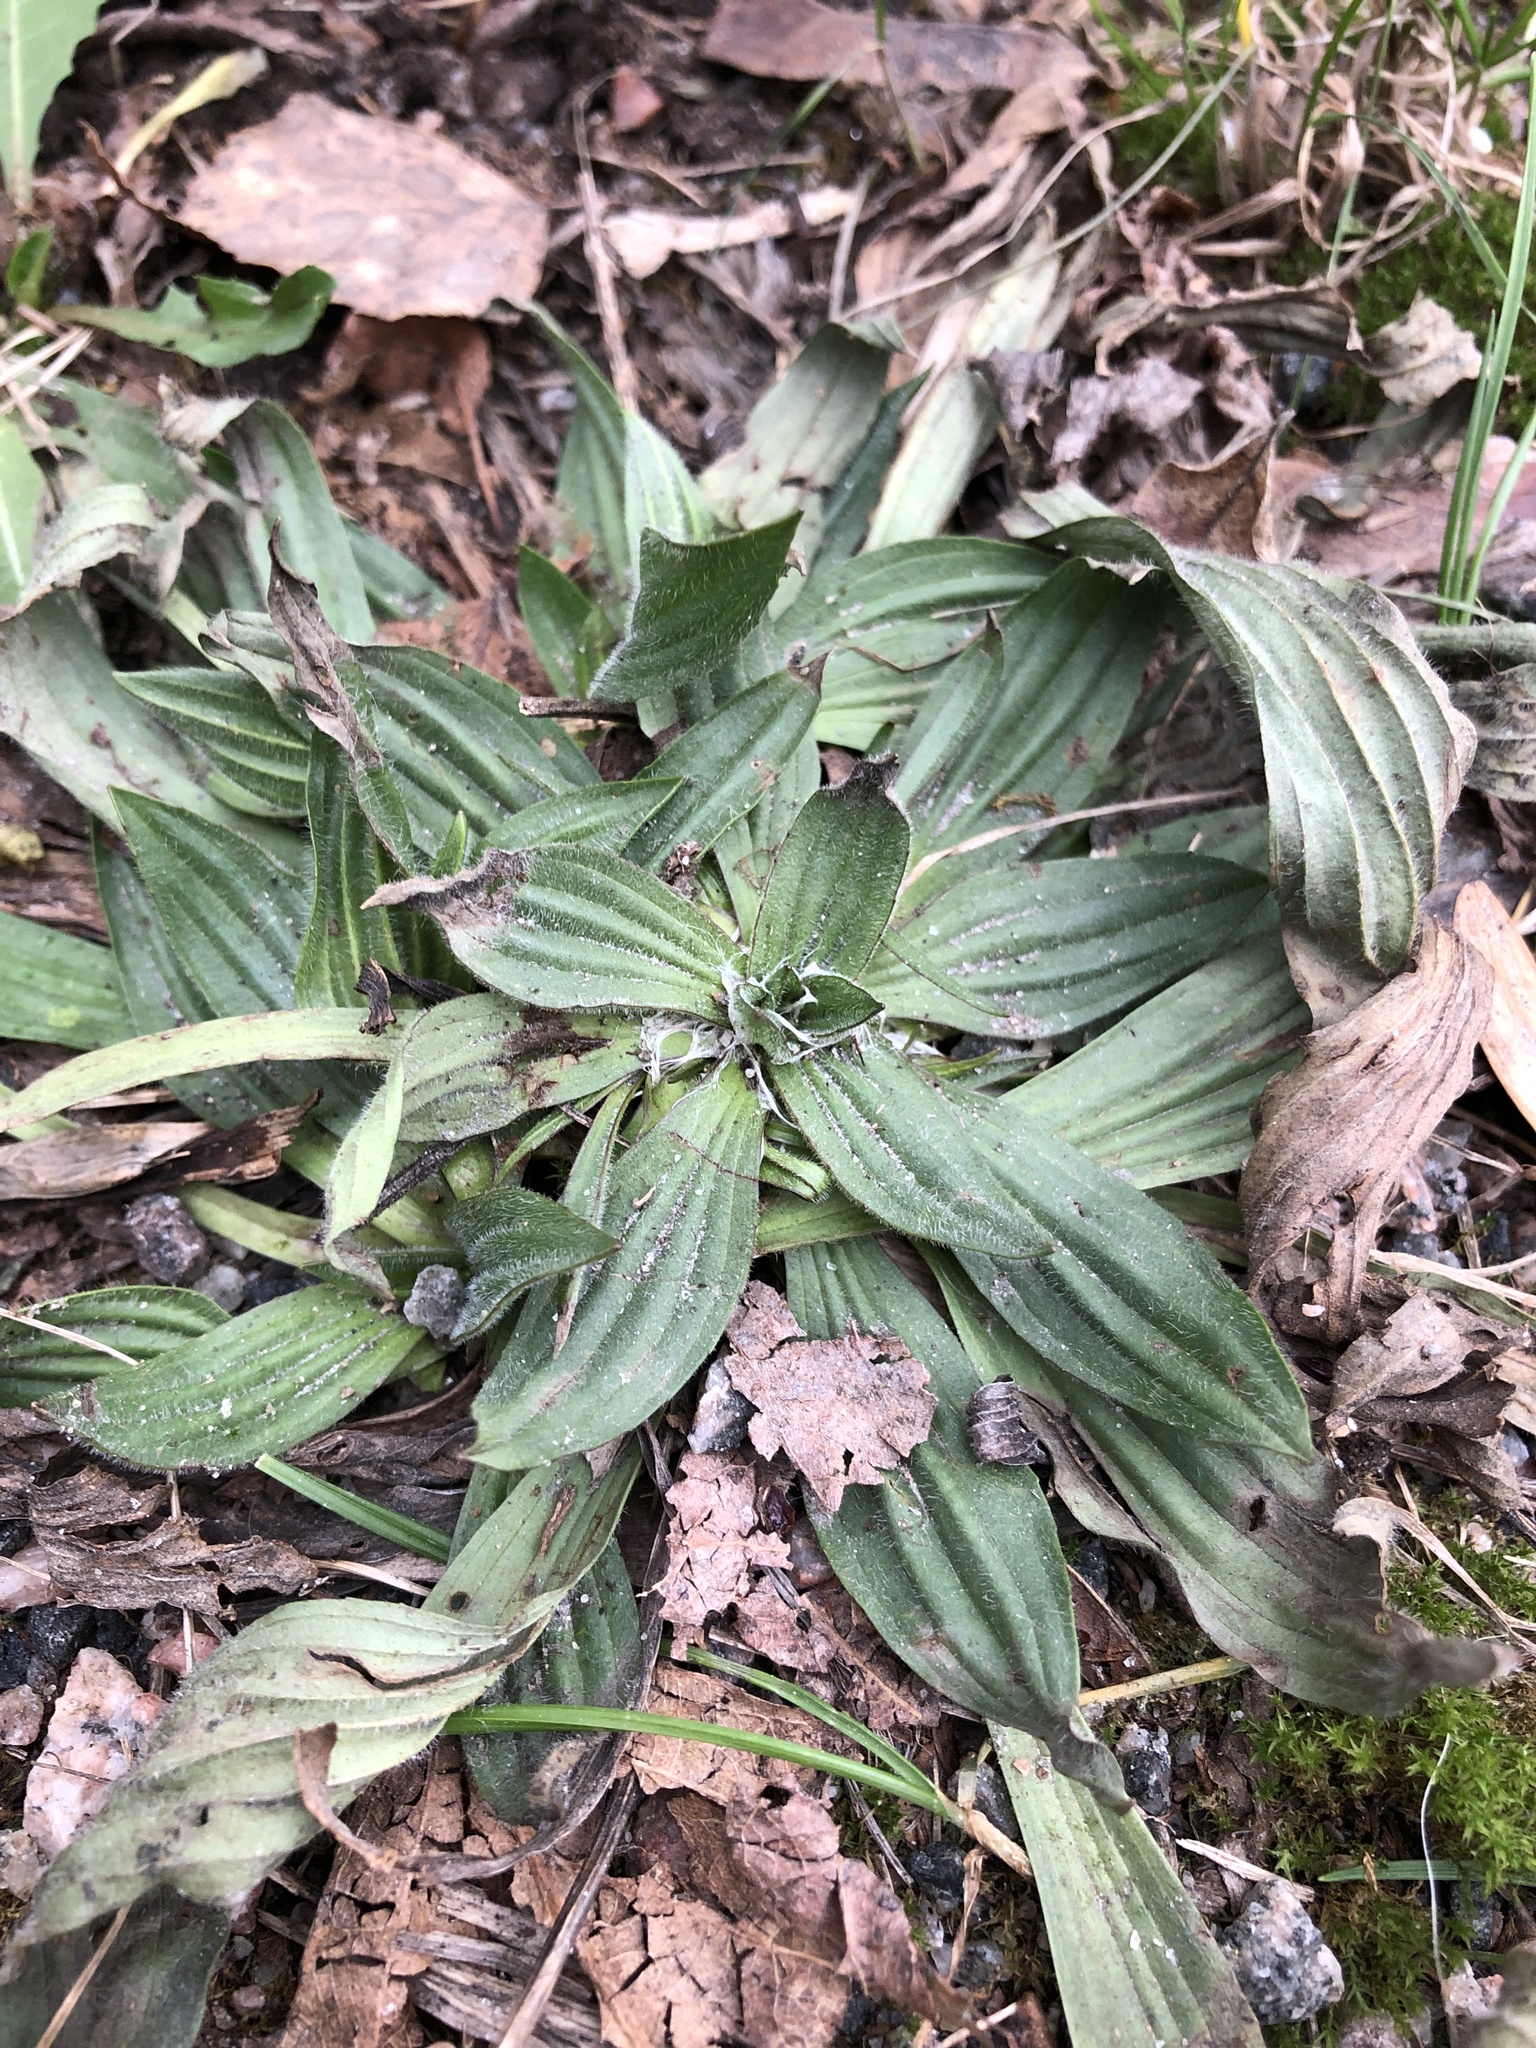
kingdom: Plantae
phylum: Tracheophyta
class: Magnoliopsida
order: Lamiales
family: Plantaginaceae
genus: Plantago
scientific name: Plantago lanceolata
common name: Ribwort plantain
